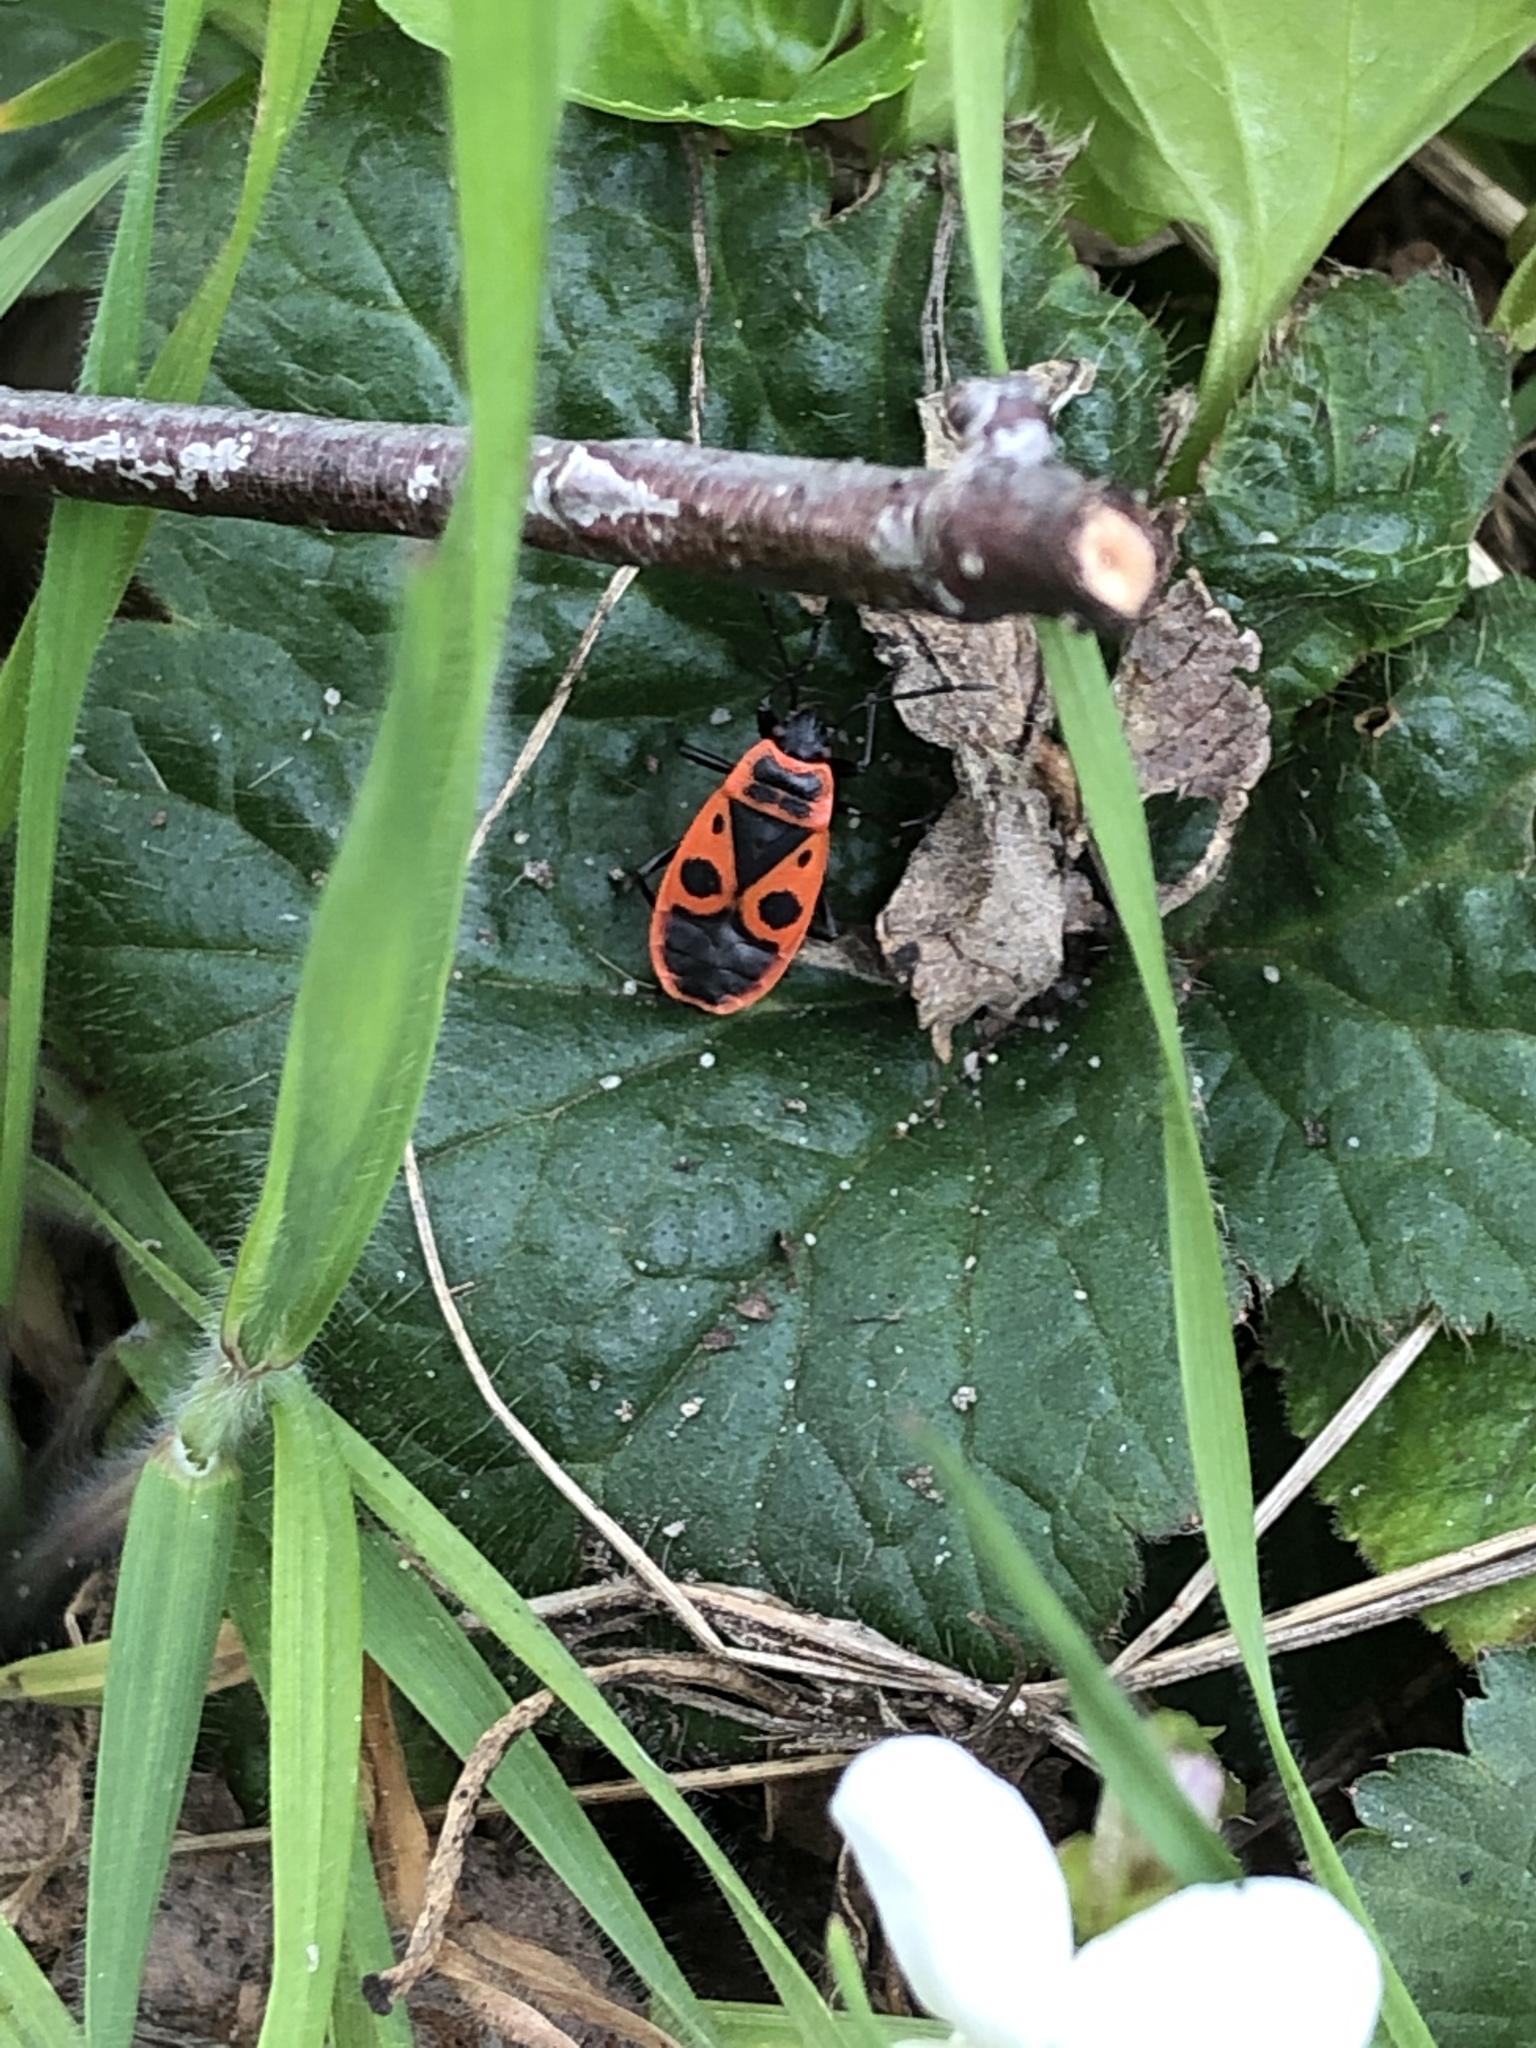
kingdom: Animalia
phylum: Arthropoda
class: Insecta
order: Hemiptera
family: Pyrrhocoridae
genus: Pyrrhocoris
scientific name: Pyrrhocoris apterus
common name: Firebug
